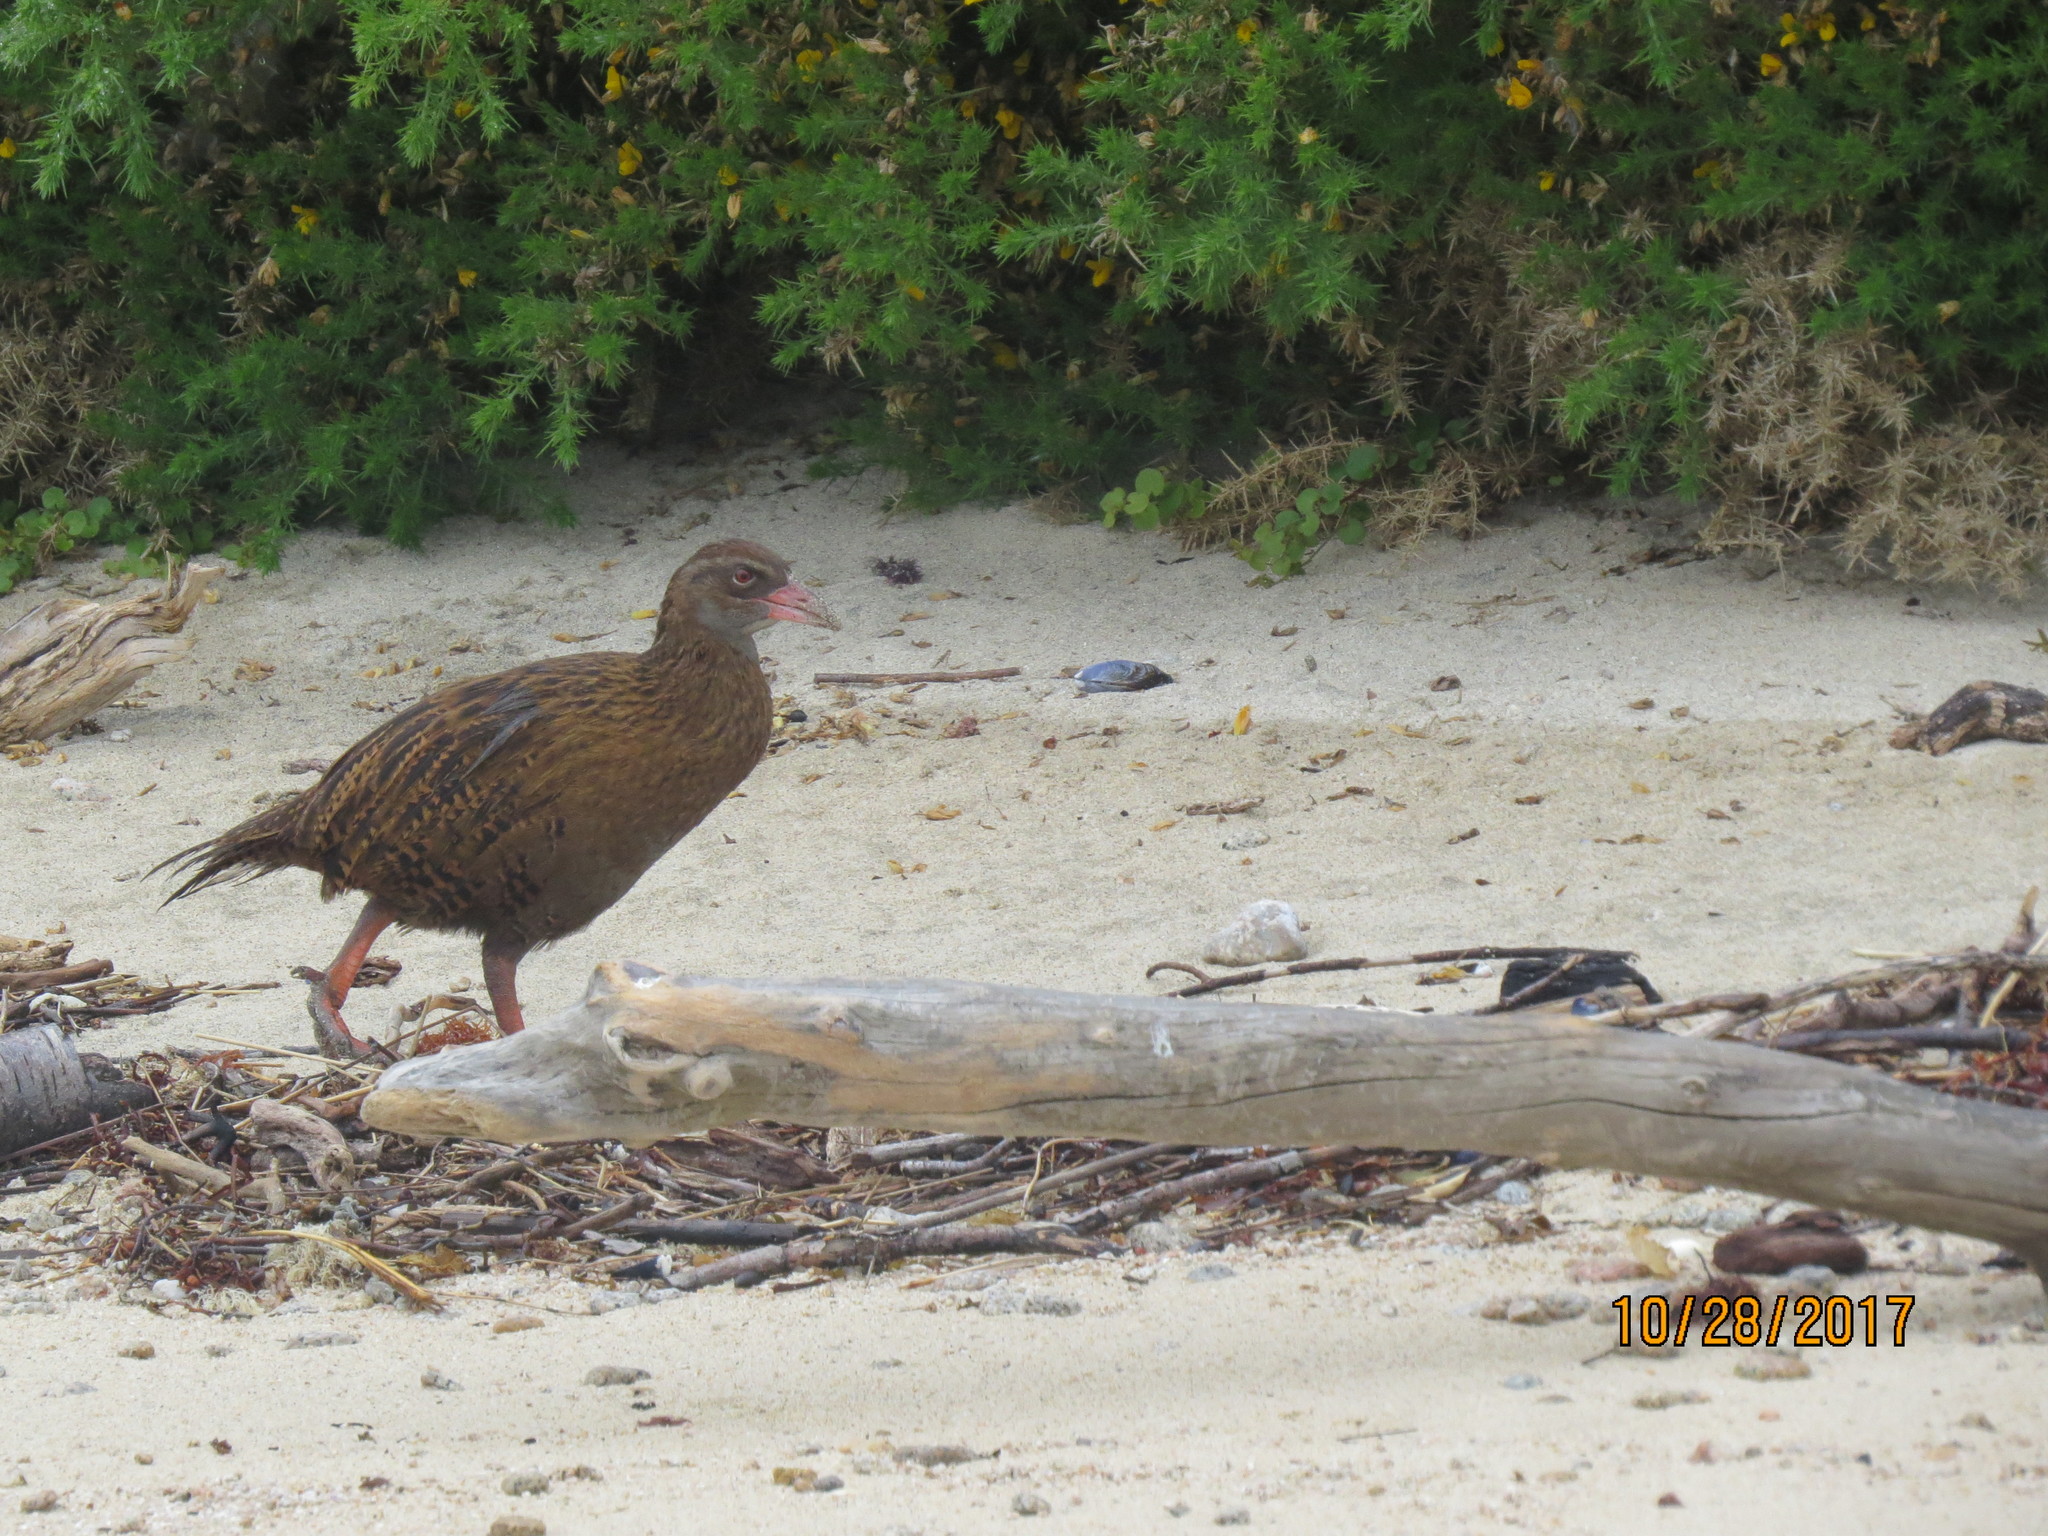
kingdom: Animalia
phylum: Chordata
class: Aves
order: Gruiformes
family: Rallidae
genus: Gallirallus
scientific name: Gallirallus australis
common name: Weka
